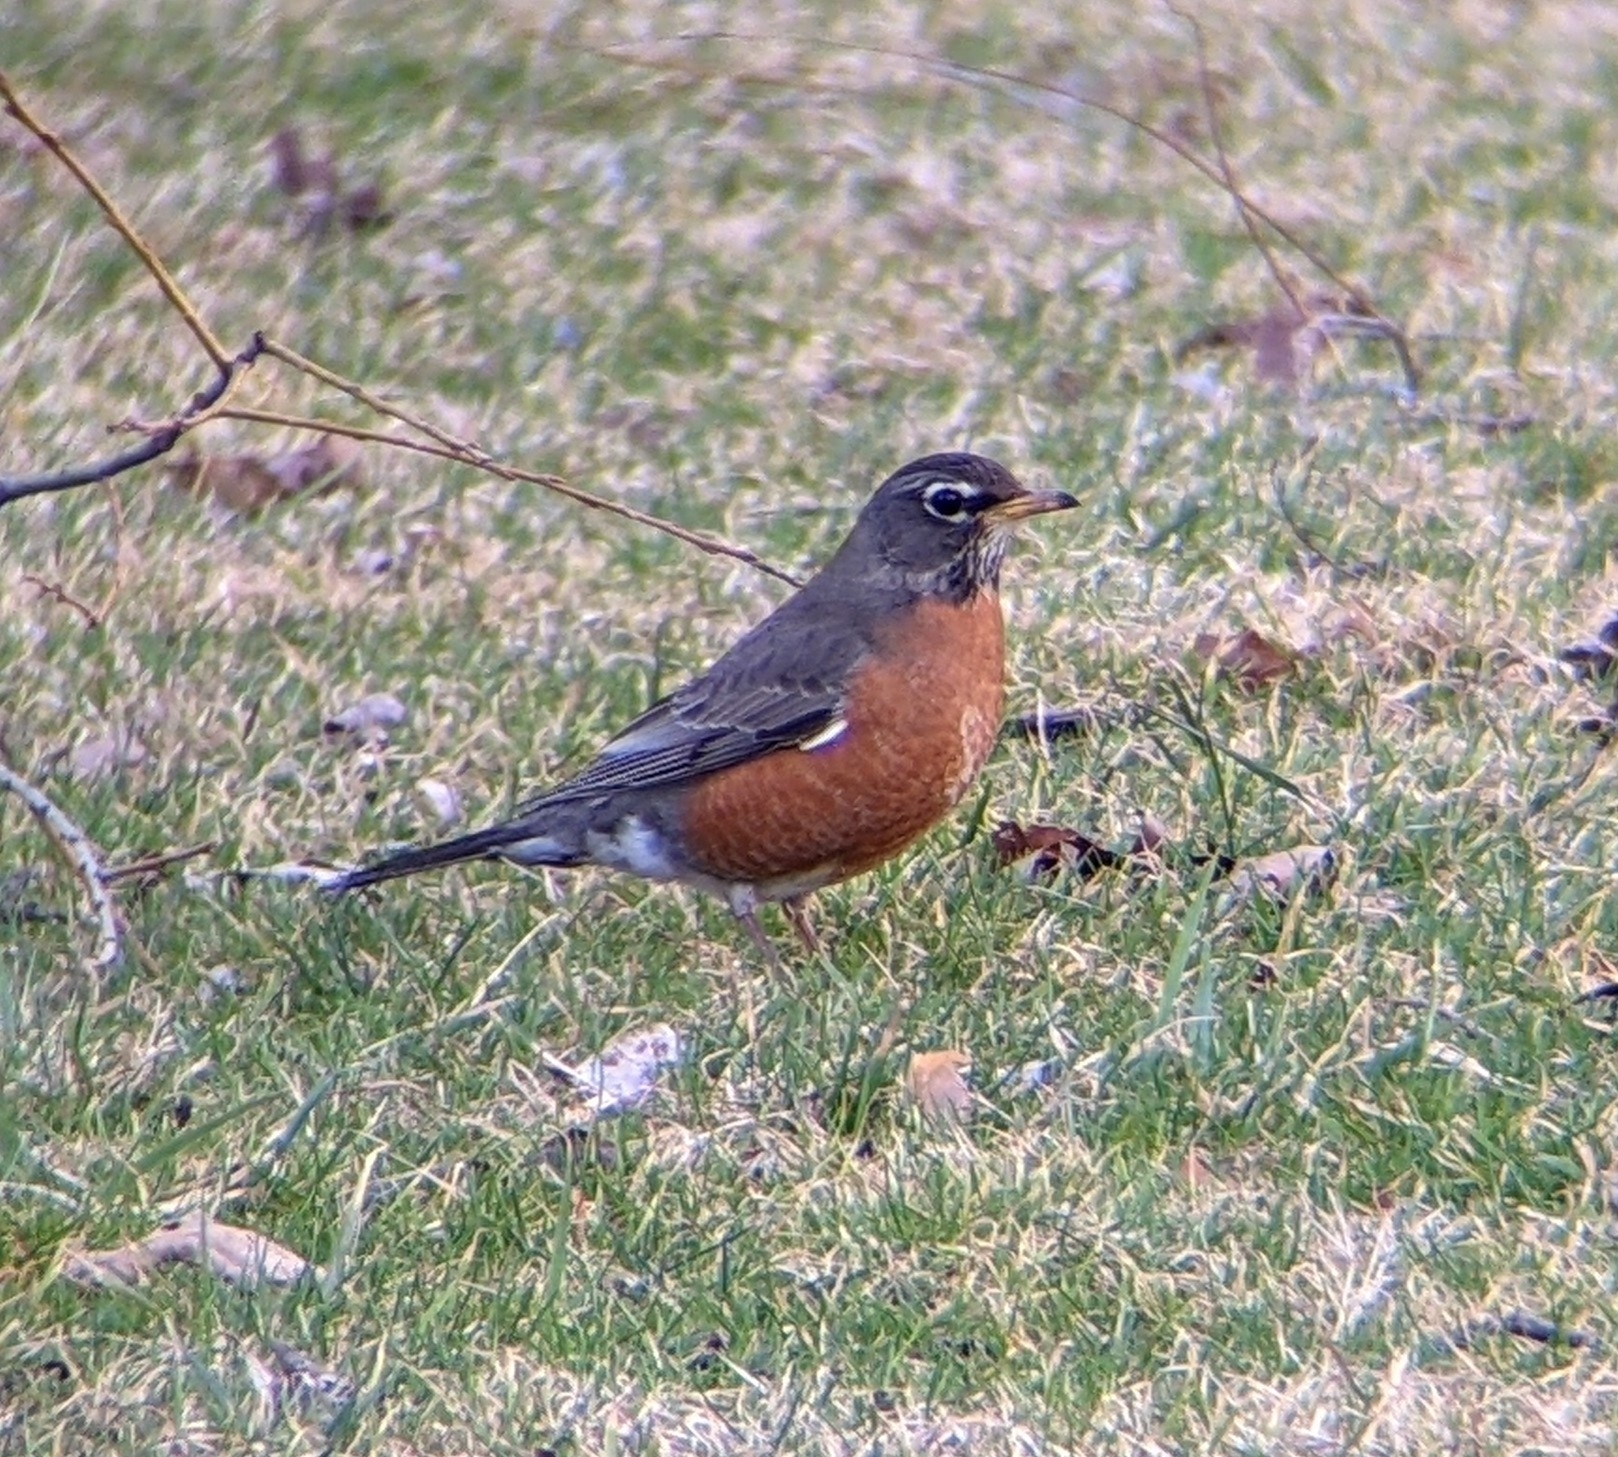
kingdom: Animalia
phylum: Chordata
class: Aves
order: Passeriformes
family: Turdidae
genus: Turdus
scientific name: Turdus migratorius
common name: American robin
